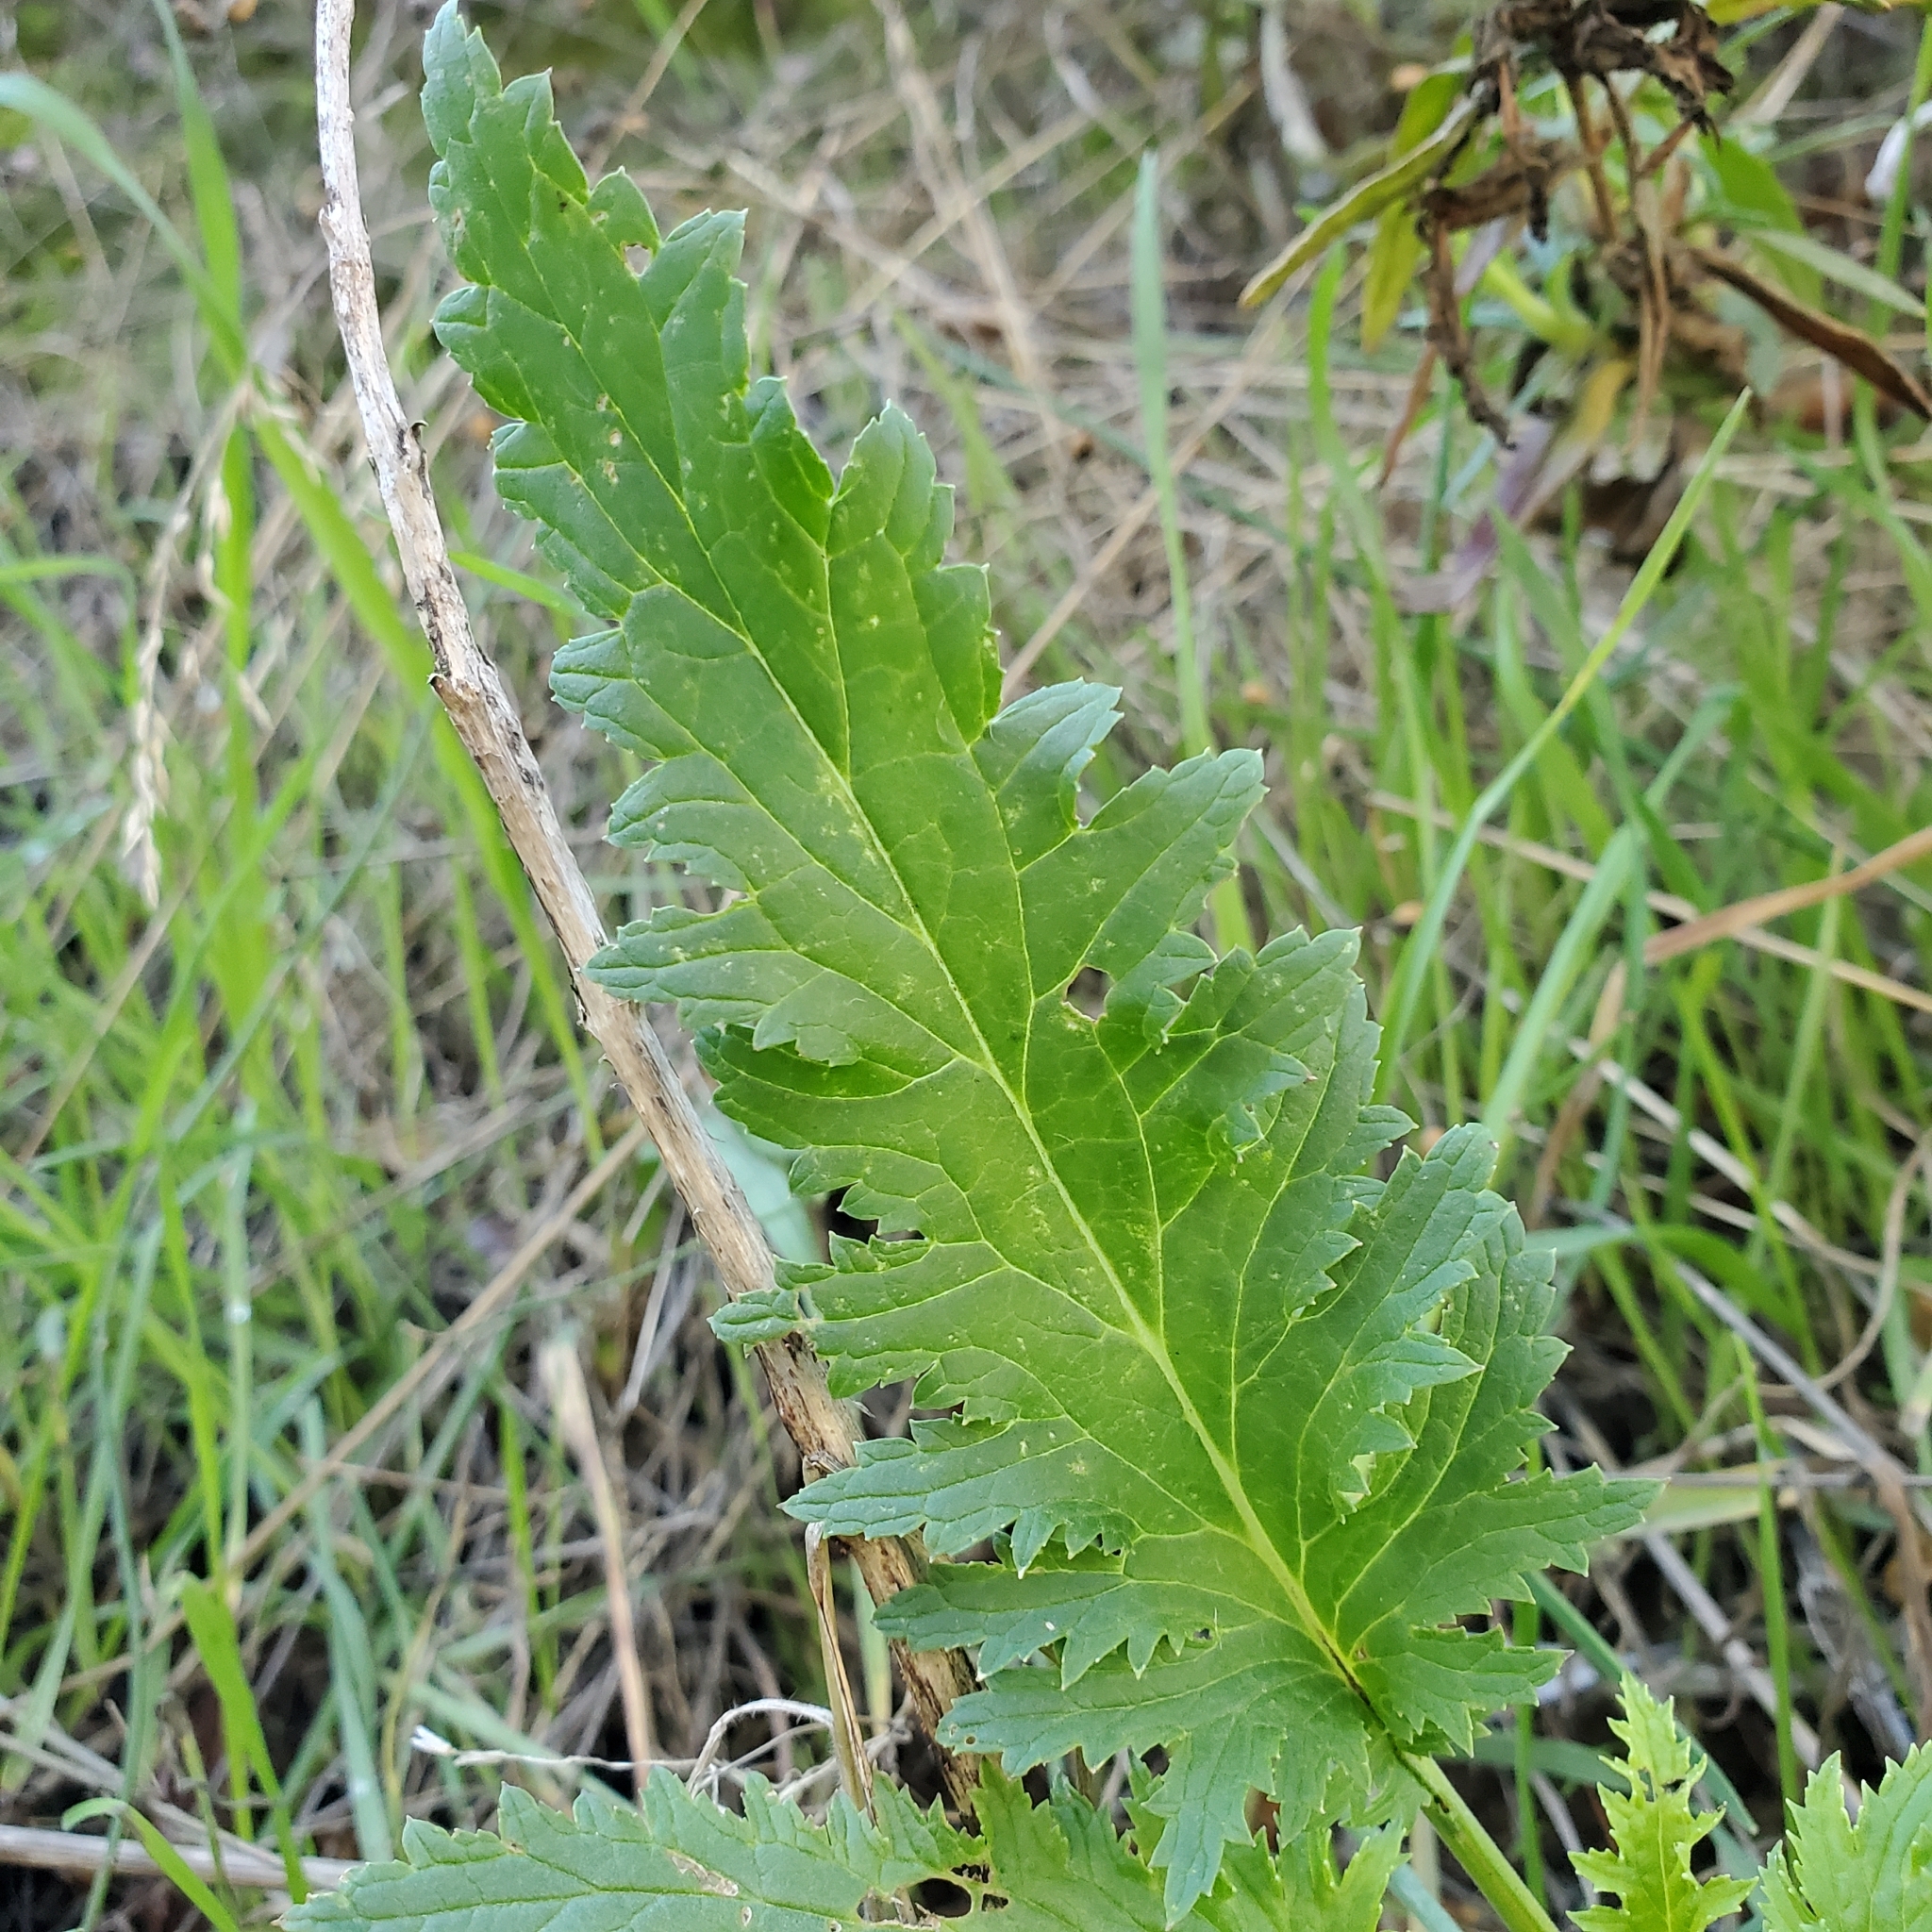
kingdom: Plantae
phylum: Tracheophyta
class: Magnoliopsida
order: Lamiales
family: Scrophulariaceae
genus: Scrophularia
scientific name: Scrophularia californica
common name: California figwort
